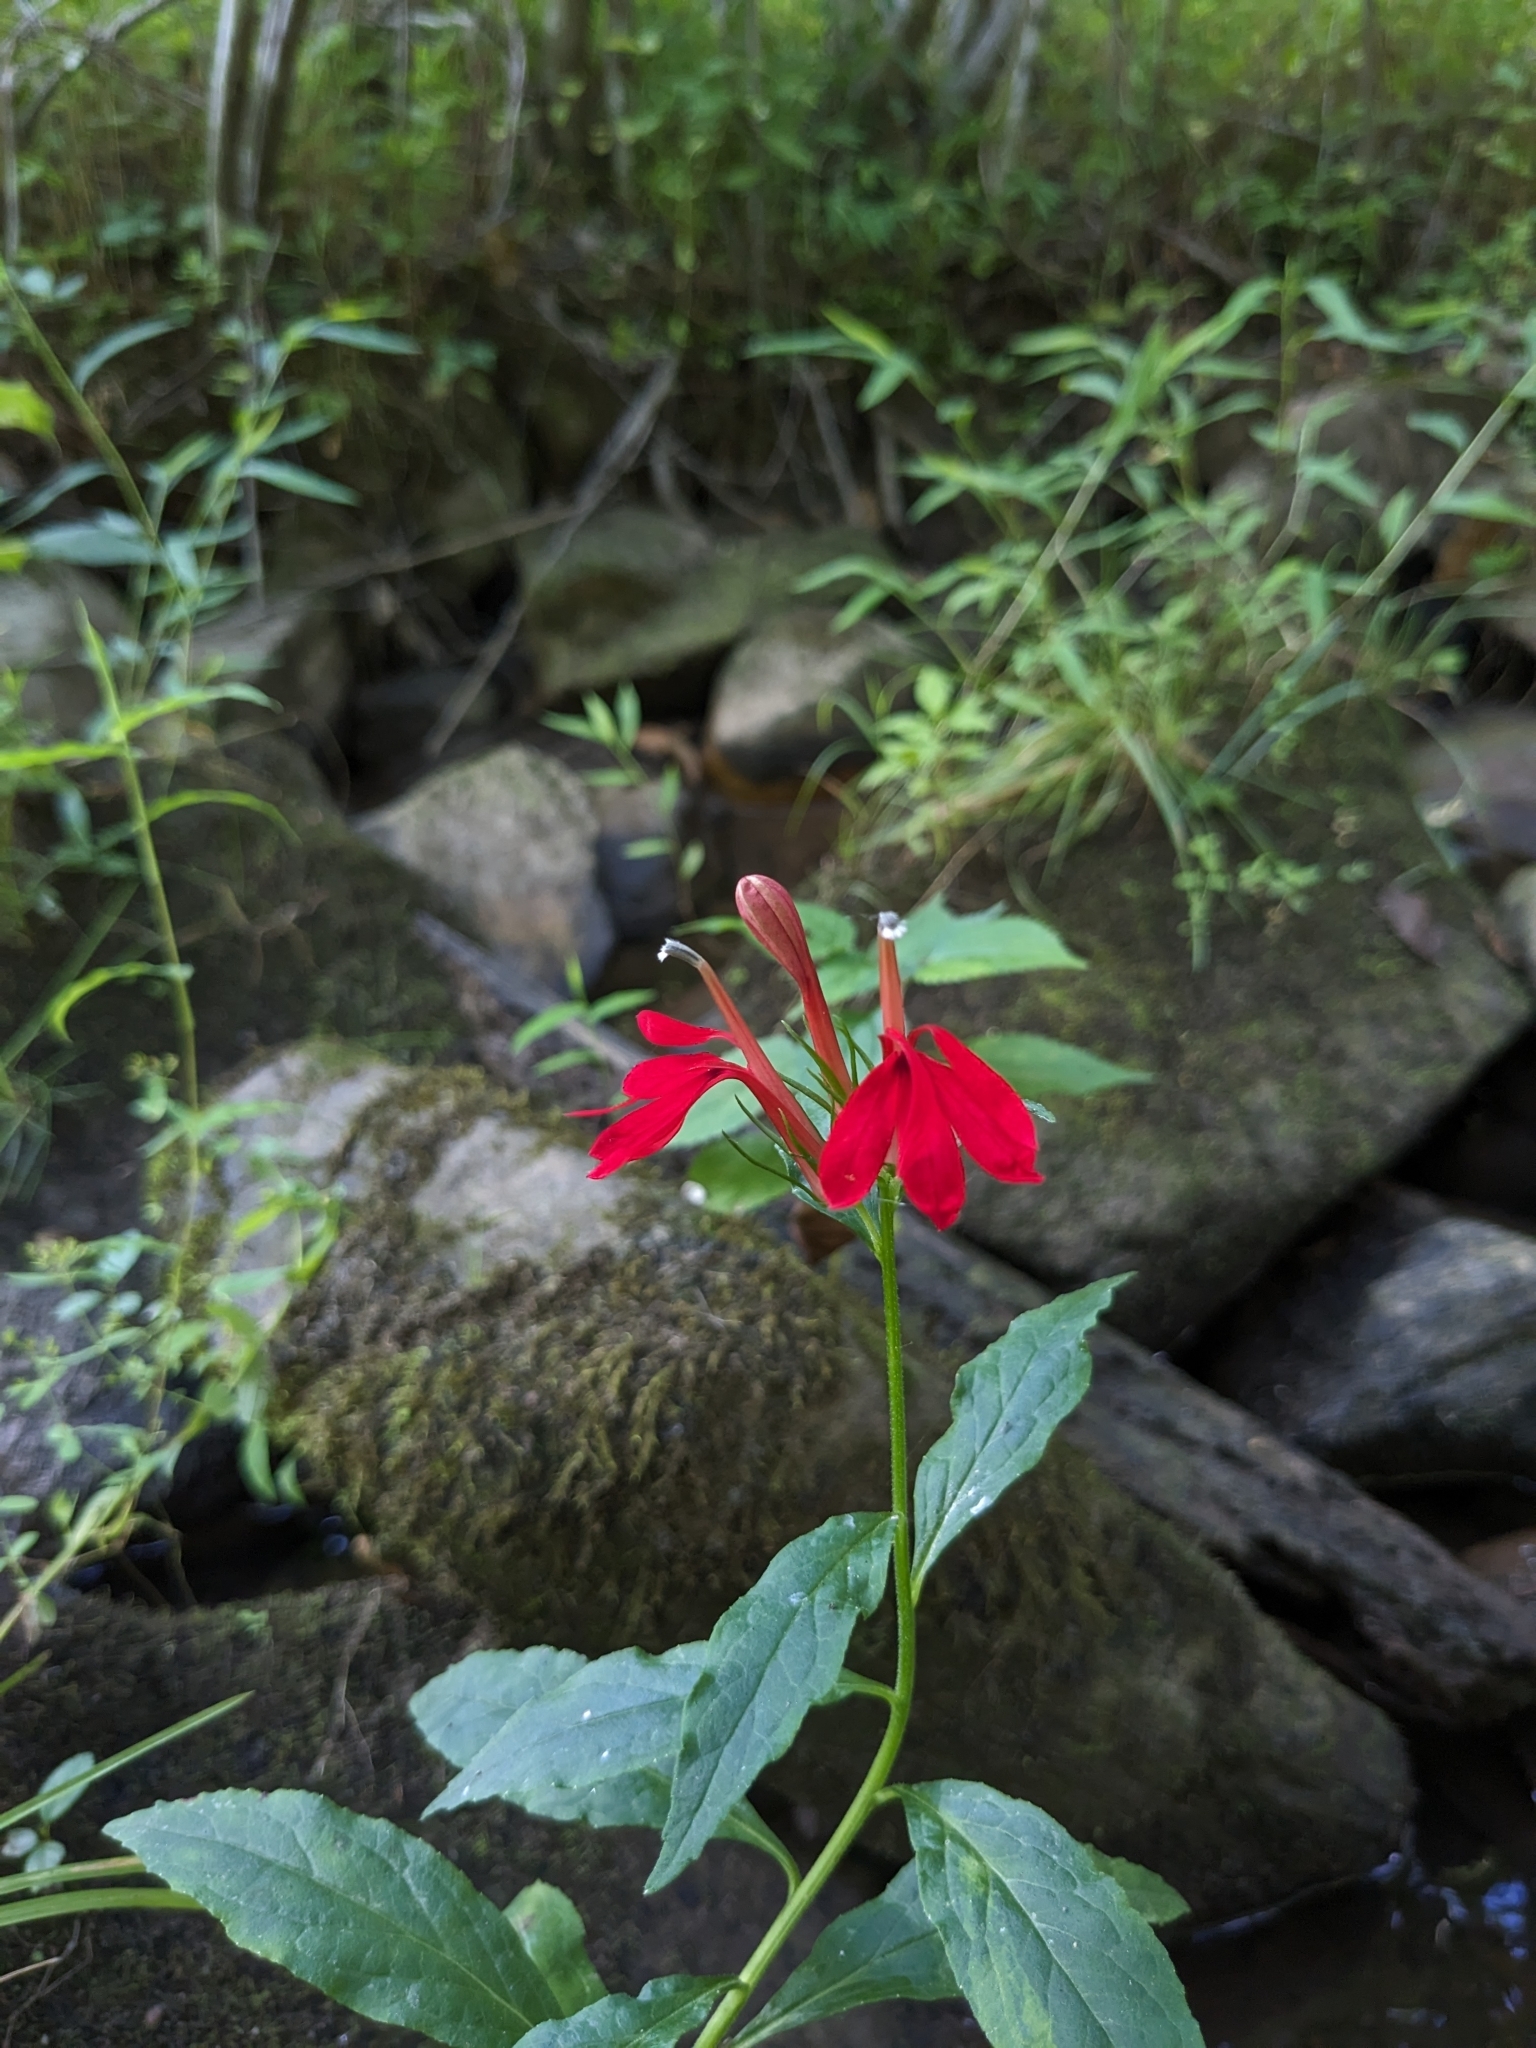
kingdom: Plantae
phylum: Tracheophyta
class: Magnoliopsida
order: Asterales
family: Campanulaceae
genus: Lobelia
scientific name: Lobelia cardinalis
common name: Cardinal flower
